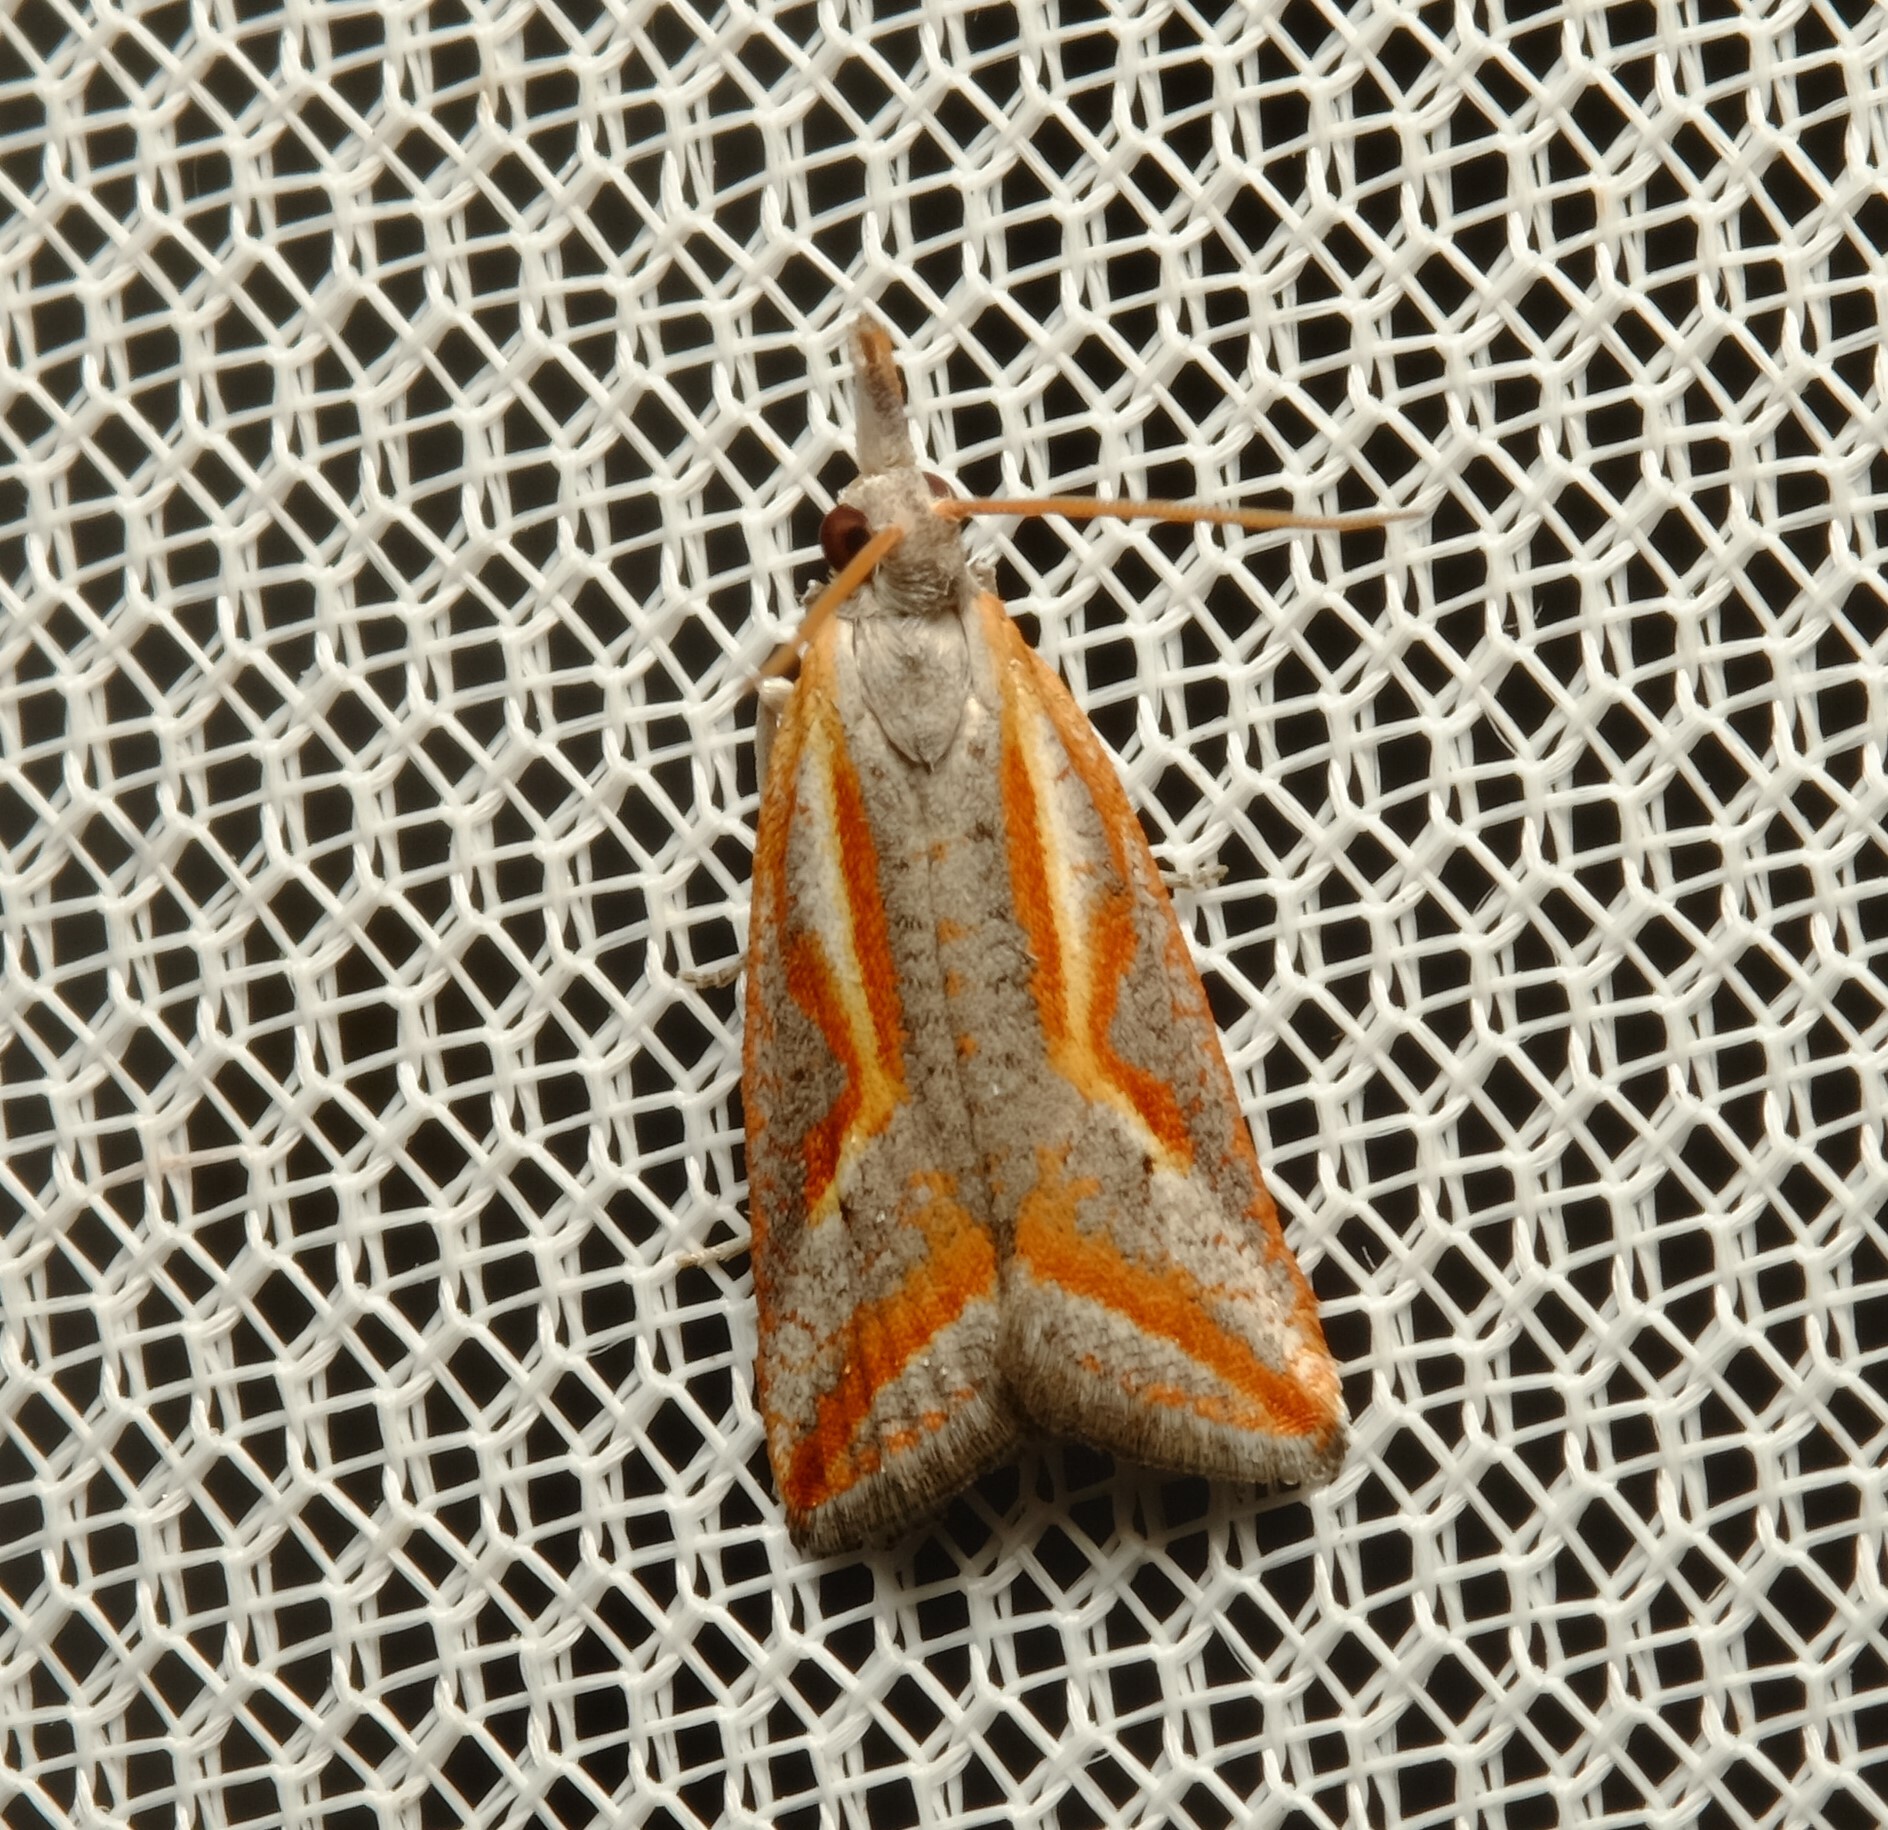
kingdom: Animalia
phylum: Arthropoda
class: Insecta
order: Lepidoptera
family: Tortricidae
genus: Arotrophora
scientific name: Arotrophora arcuatalis
